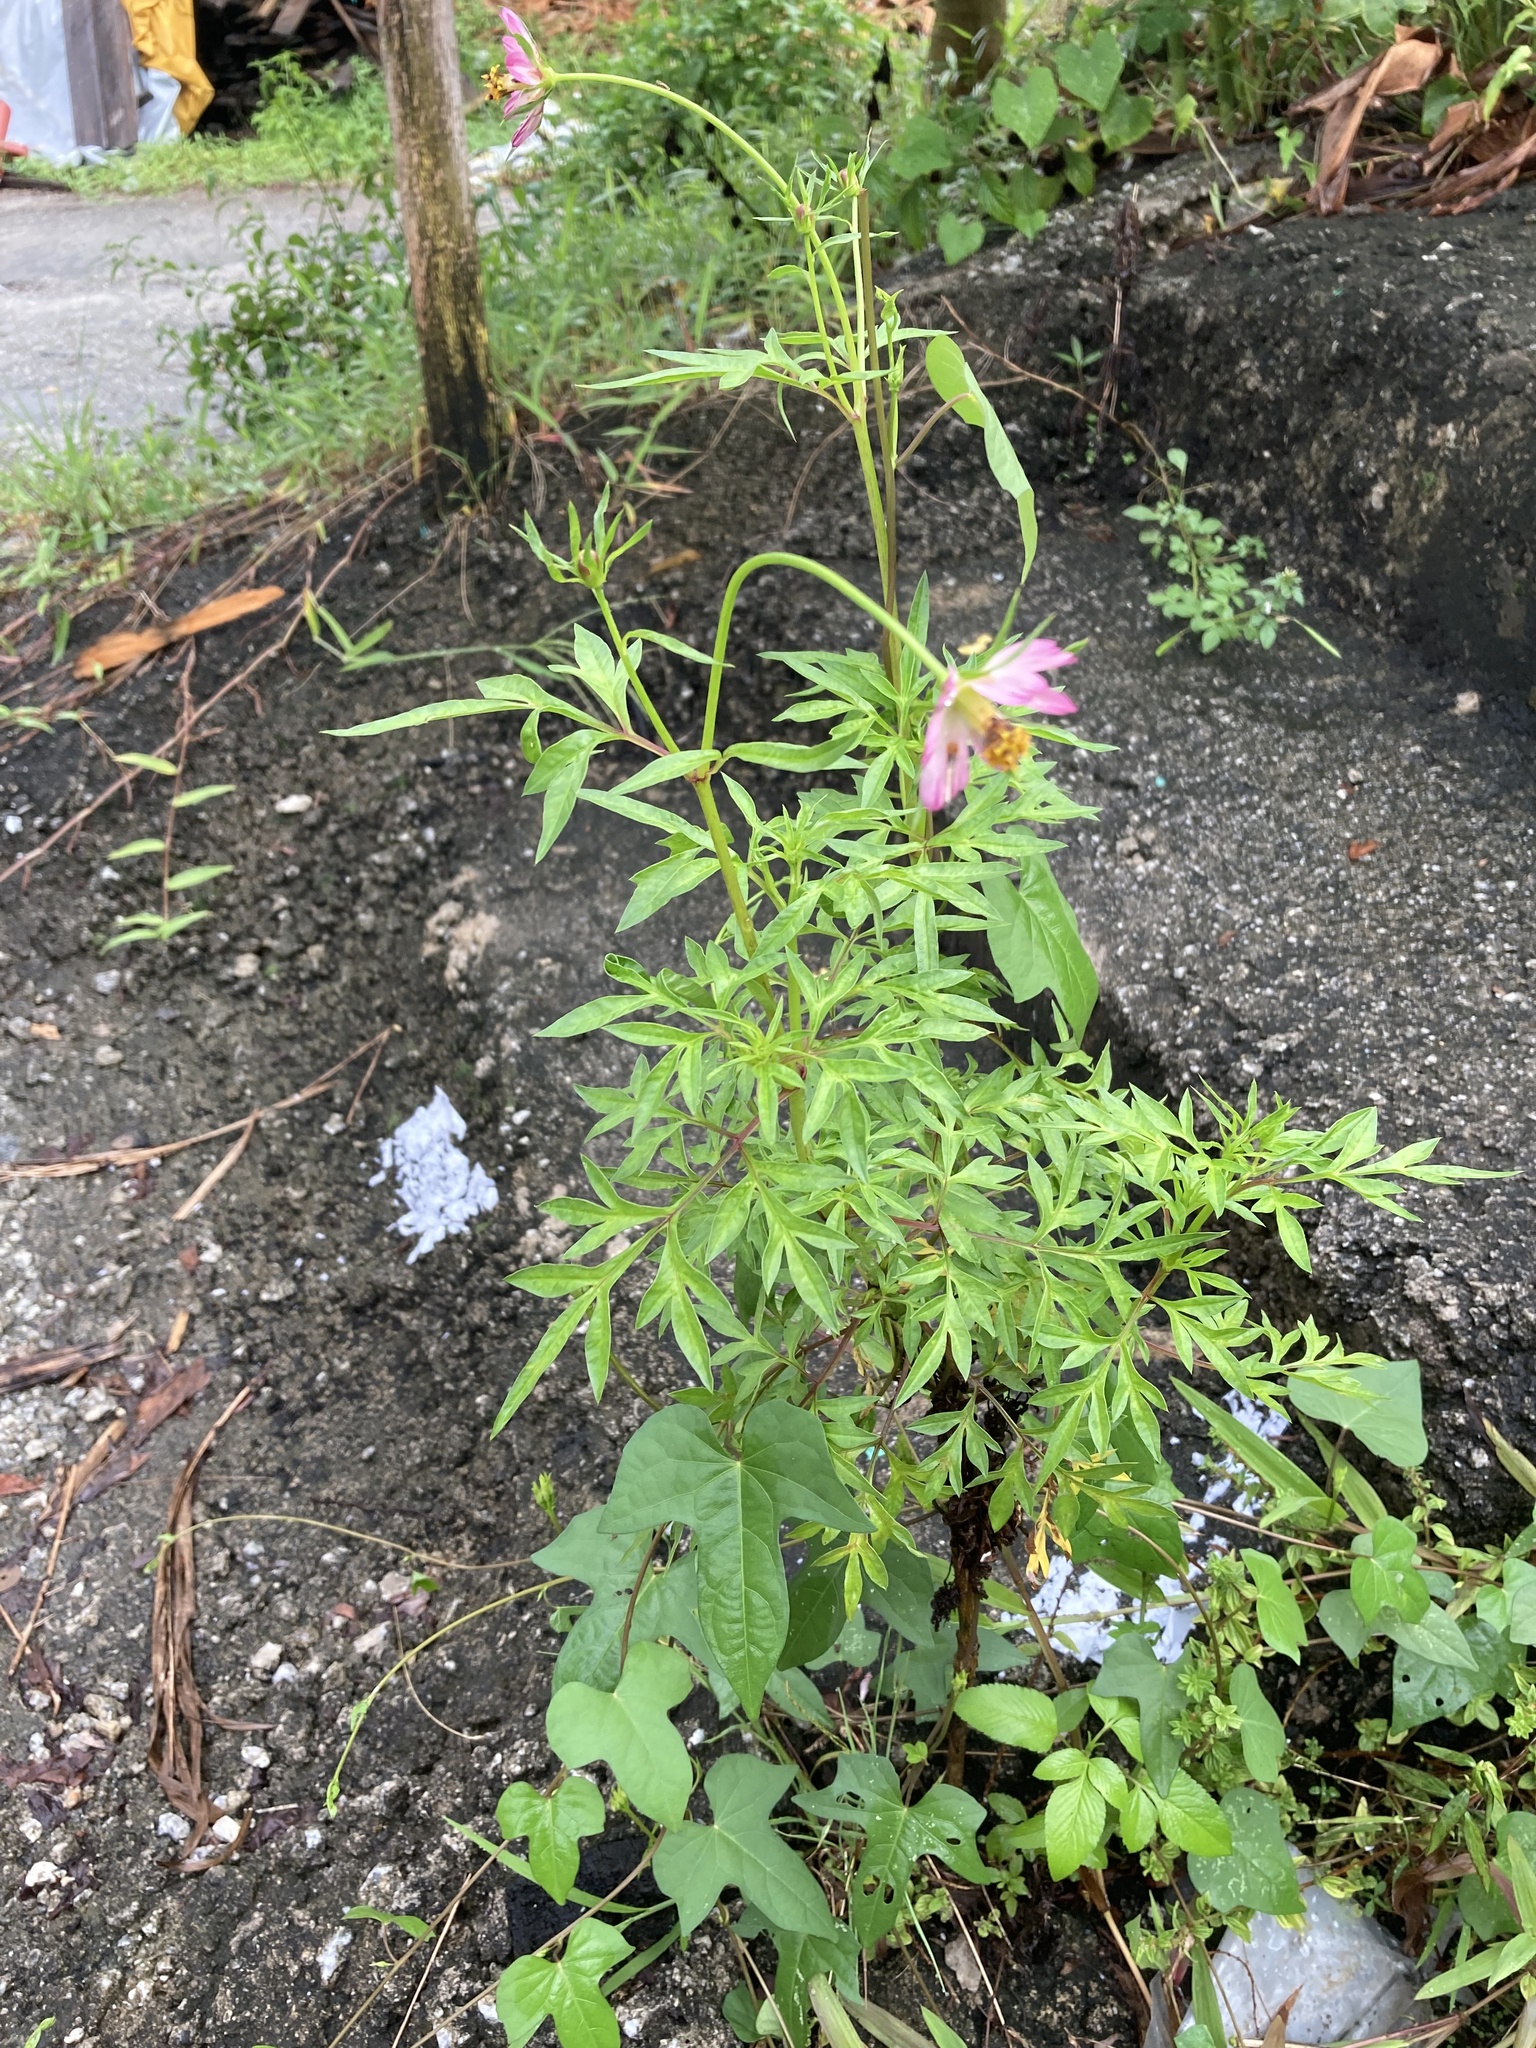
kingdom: Plantae
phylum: Tracheophyta
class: Magnoliopsida
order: Asterales
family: Asteraceae
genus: Cosmos
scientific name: Cosmos caudatus
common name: Wild cosmos
